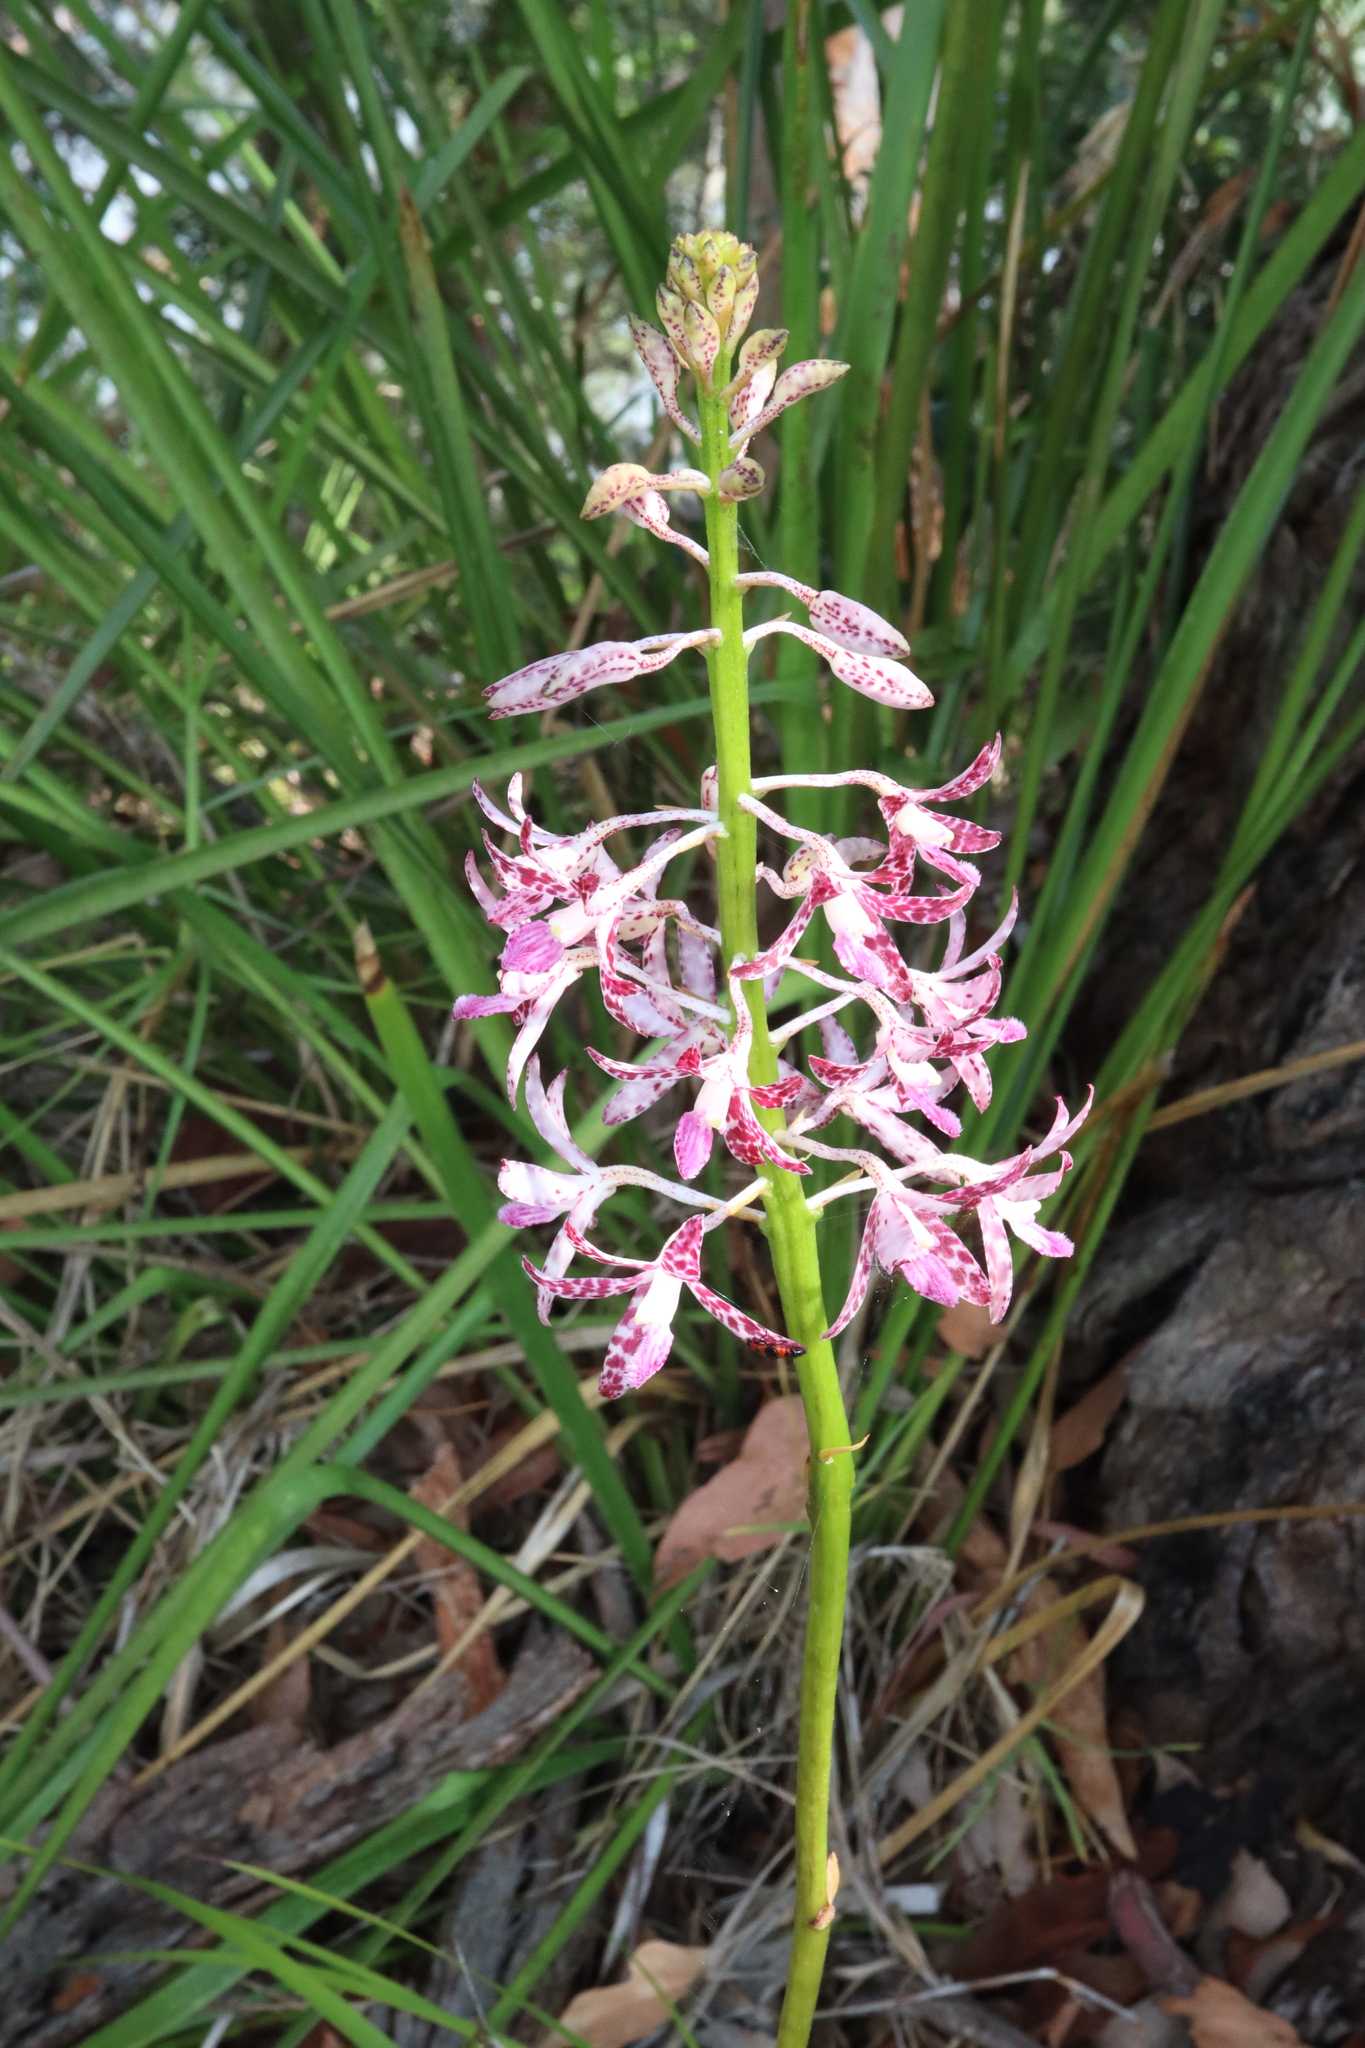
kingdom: Plantae
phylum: Tracheophyta
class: Liliopsida
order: Asparagales
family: Orchidaceae
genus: Dipodium
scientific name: Dipodium variegatum
